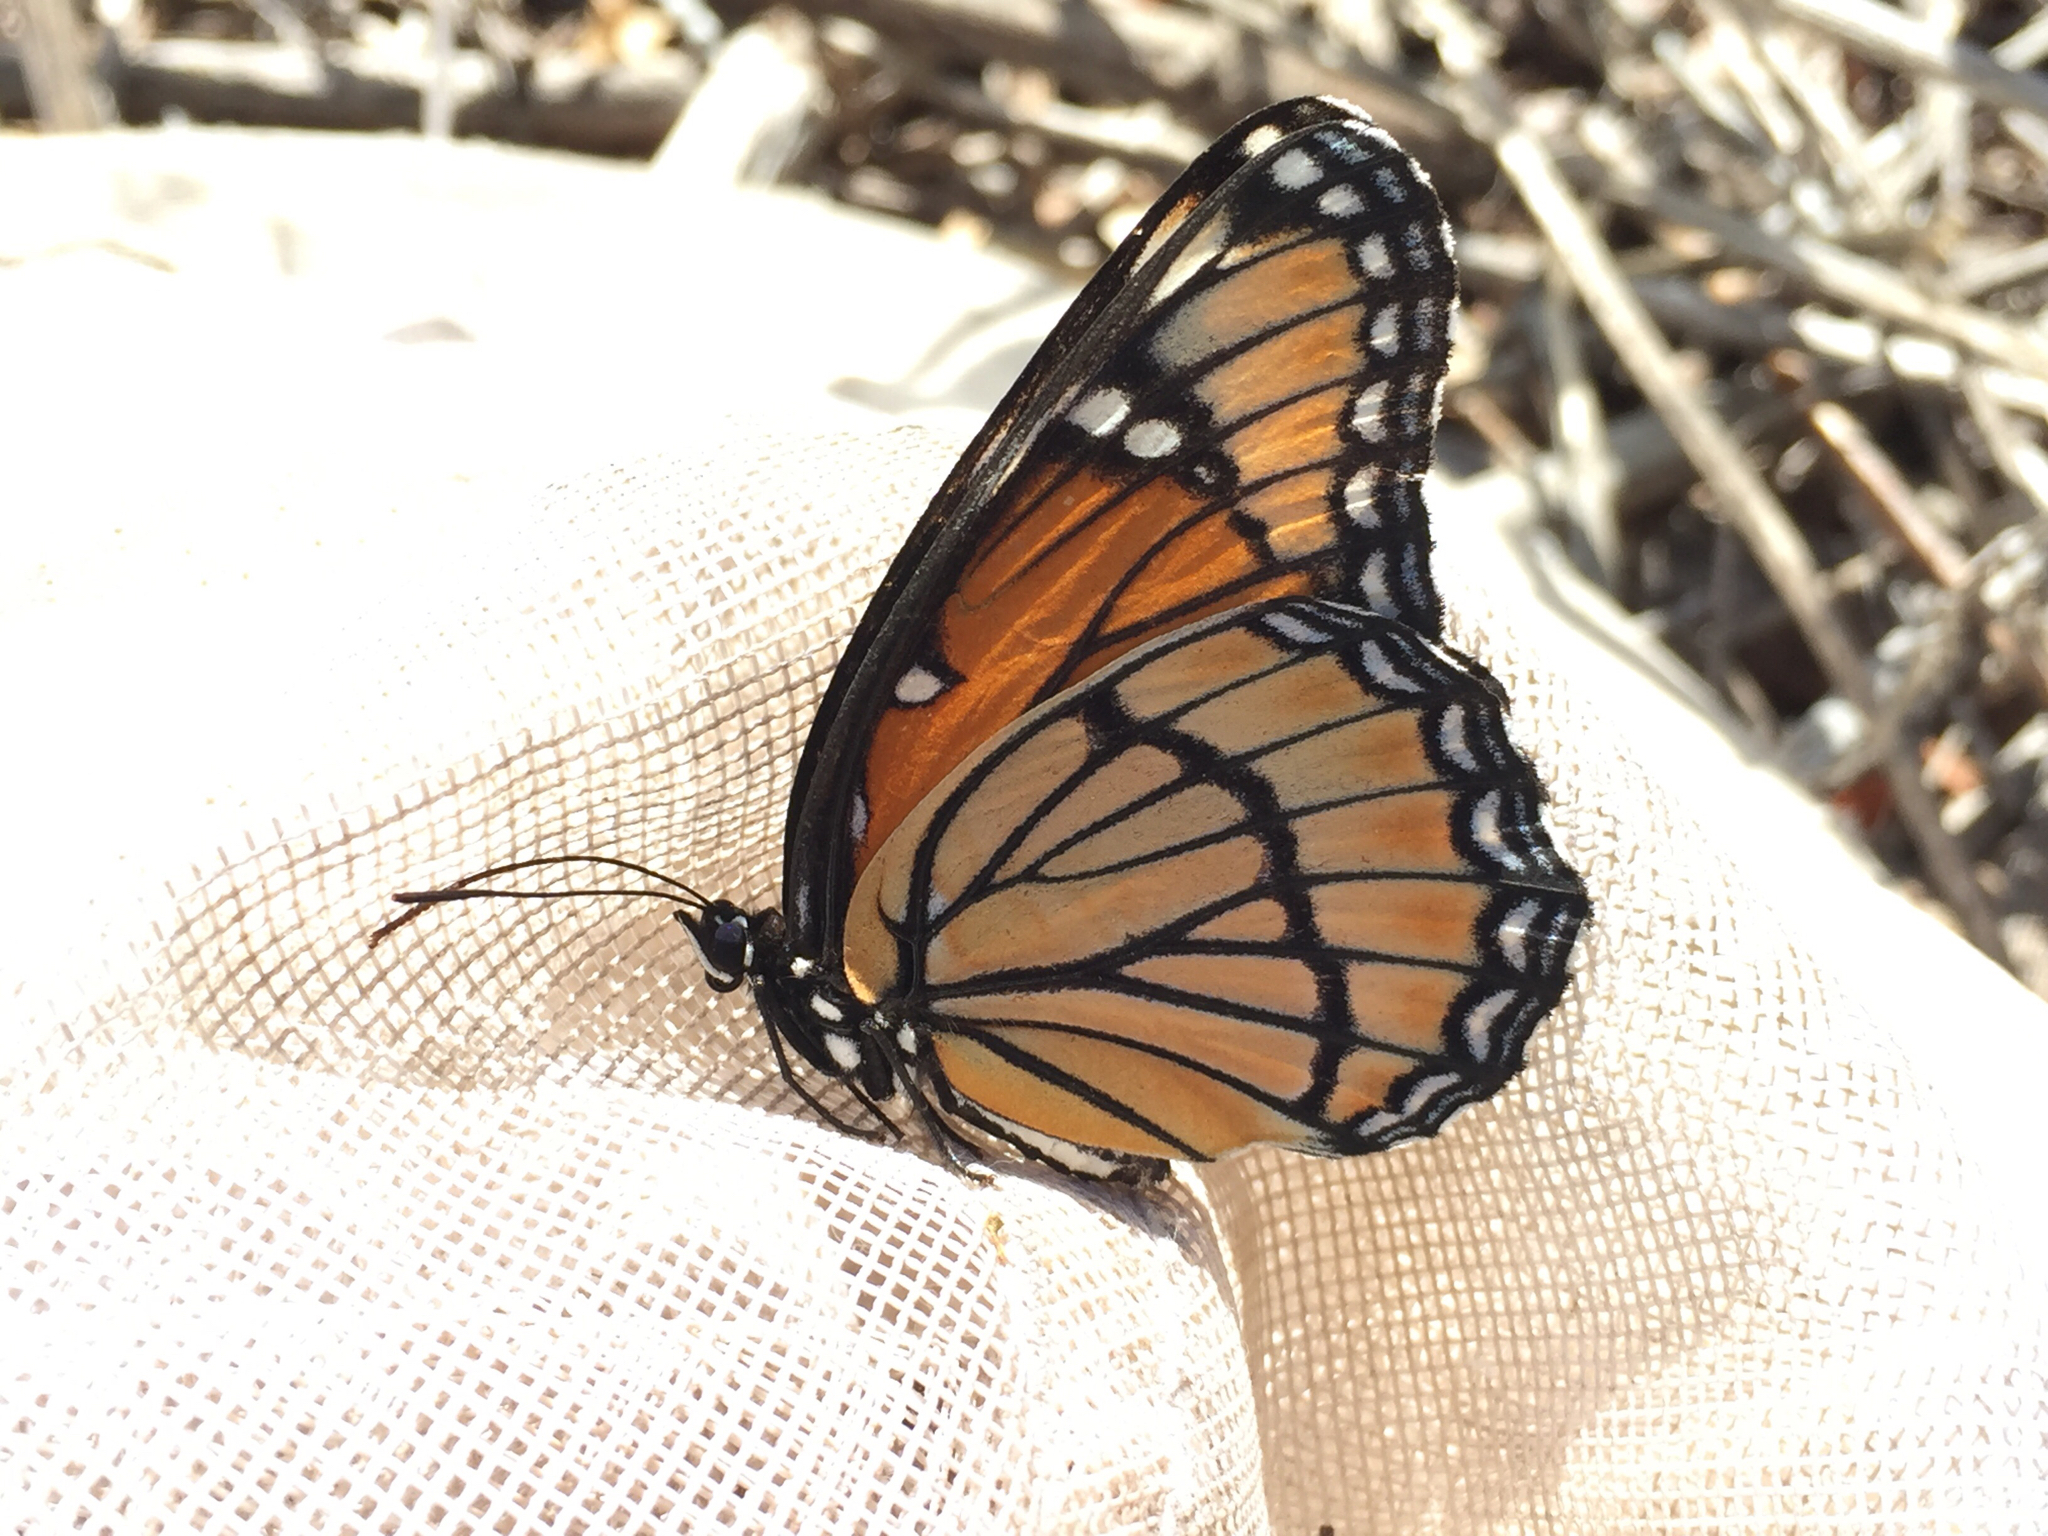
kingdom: Animalia
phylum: Arthropoda
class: Insecta
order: Lepidoptera
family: Nymphalidae
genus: Limenitis
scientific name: Limenitis archippus
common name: Viceroy
